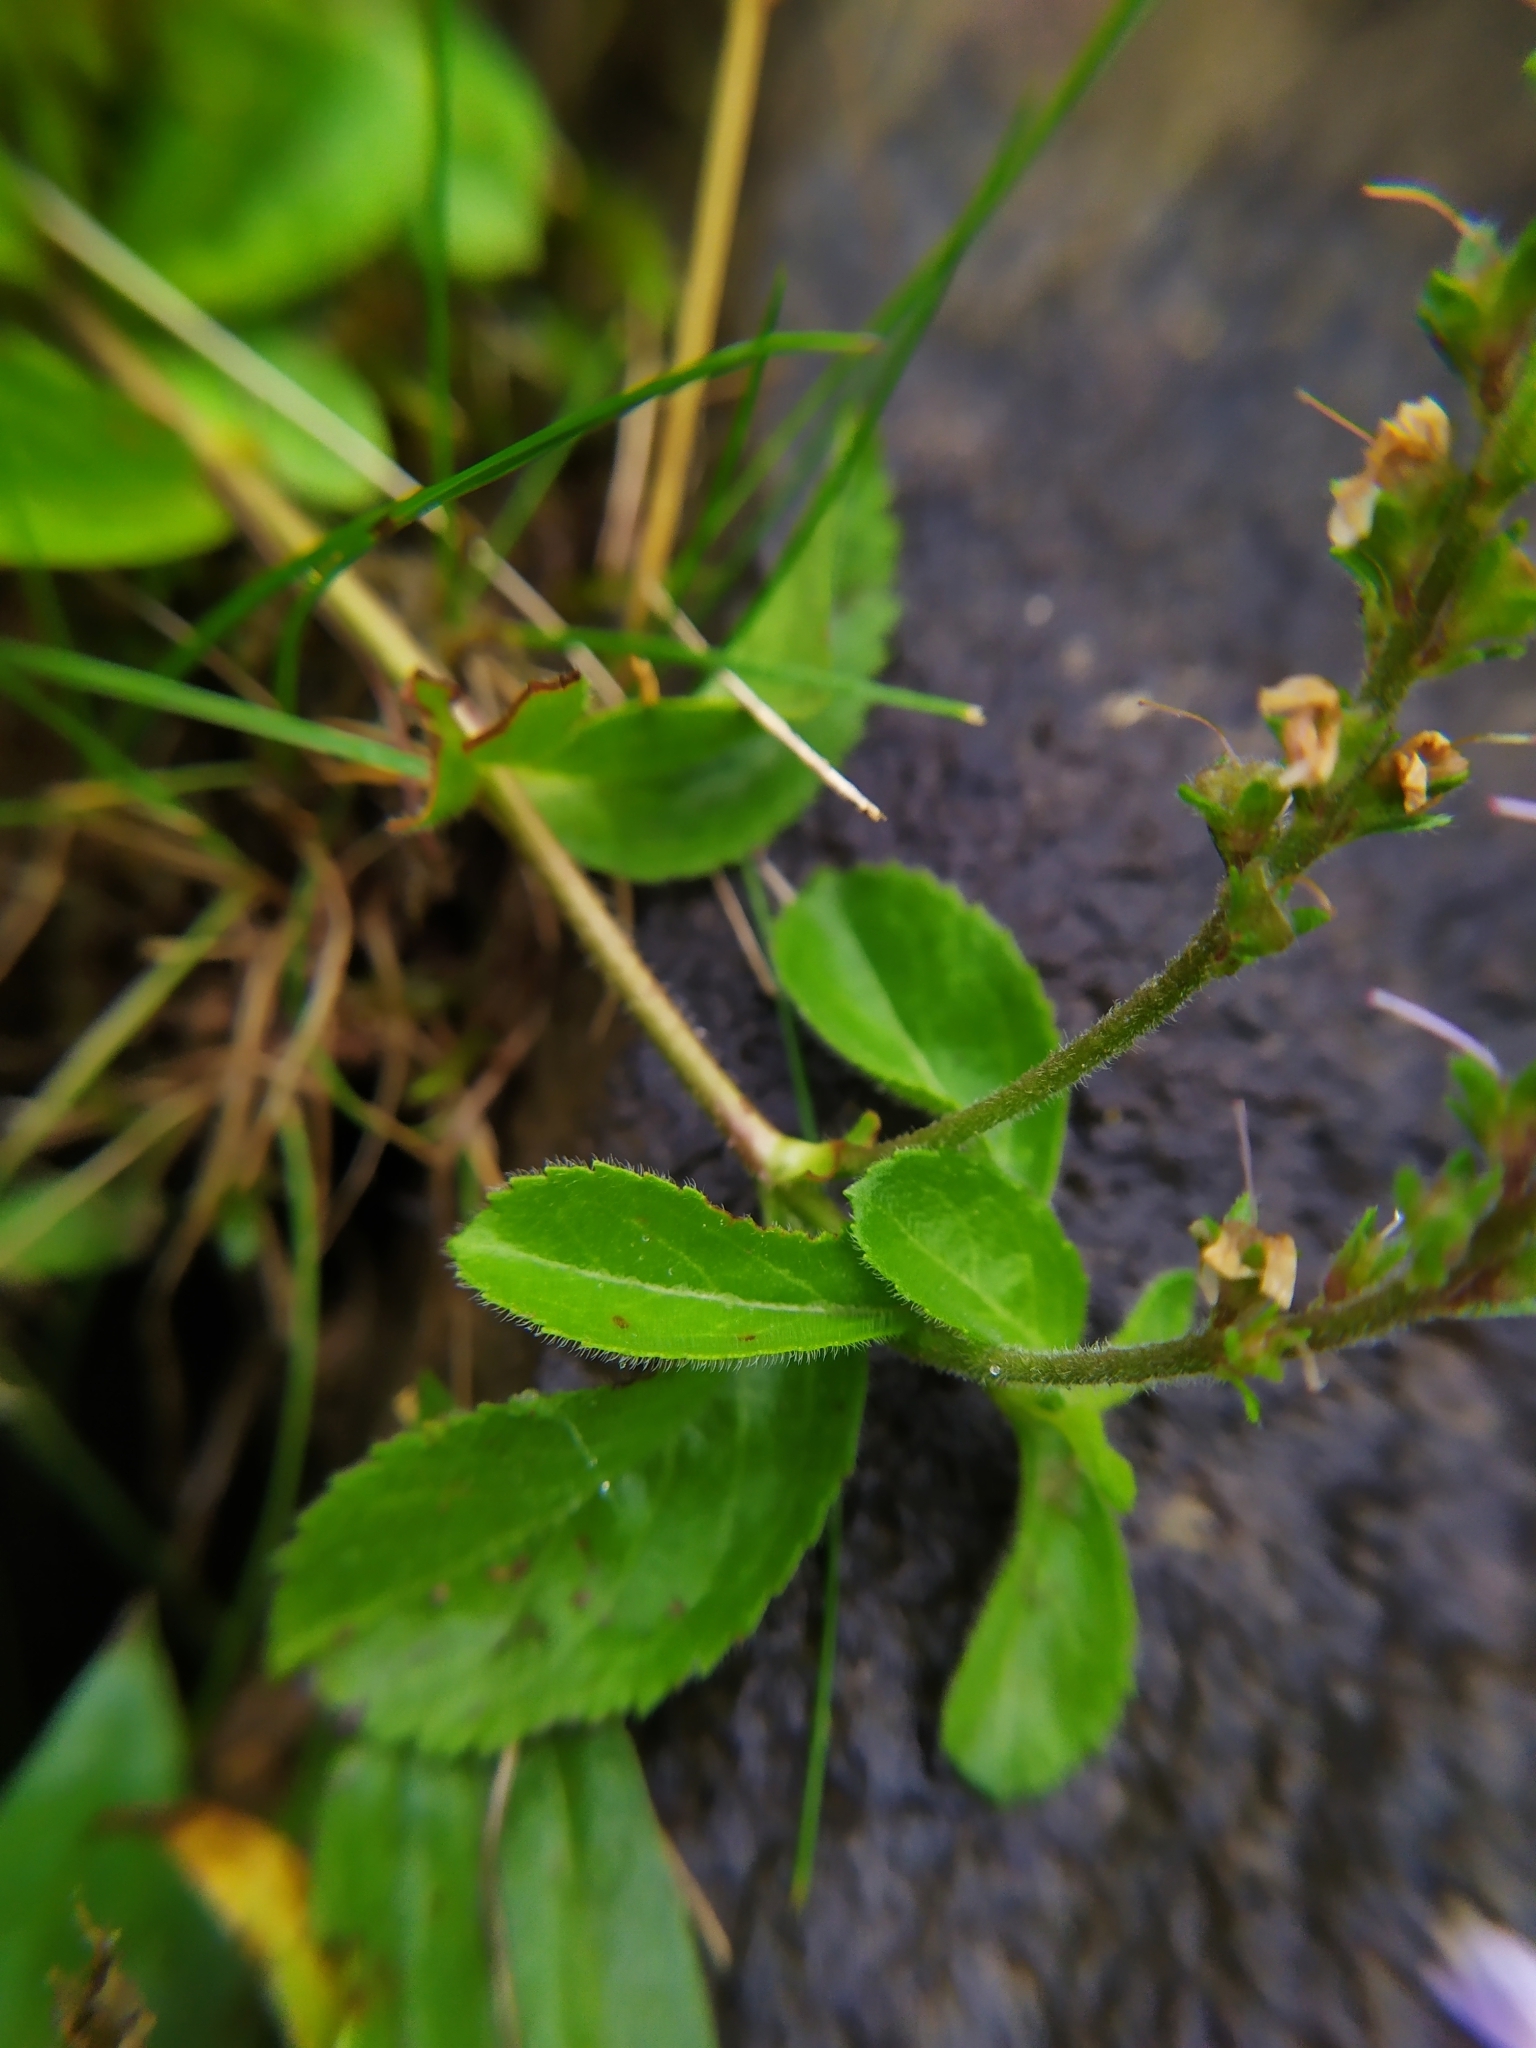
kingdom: Plantae
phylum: Tracheophyta
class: Magnoliopsida
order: Lamiales
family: Plantaginaceae
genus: Veronica
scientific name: Veronica officinalis
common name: Common speedwell
